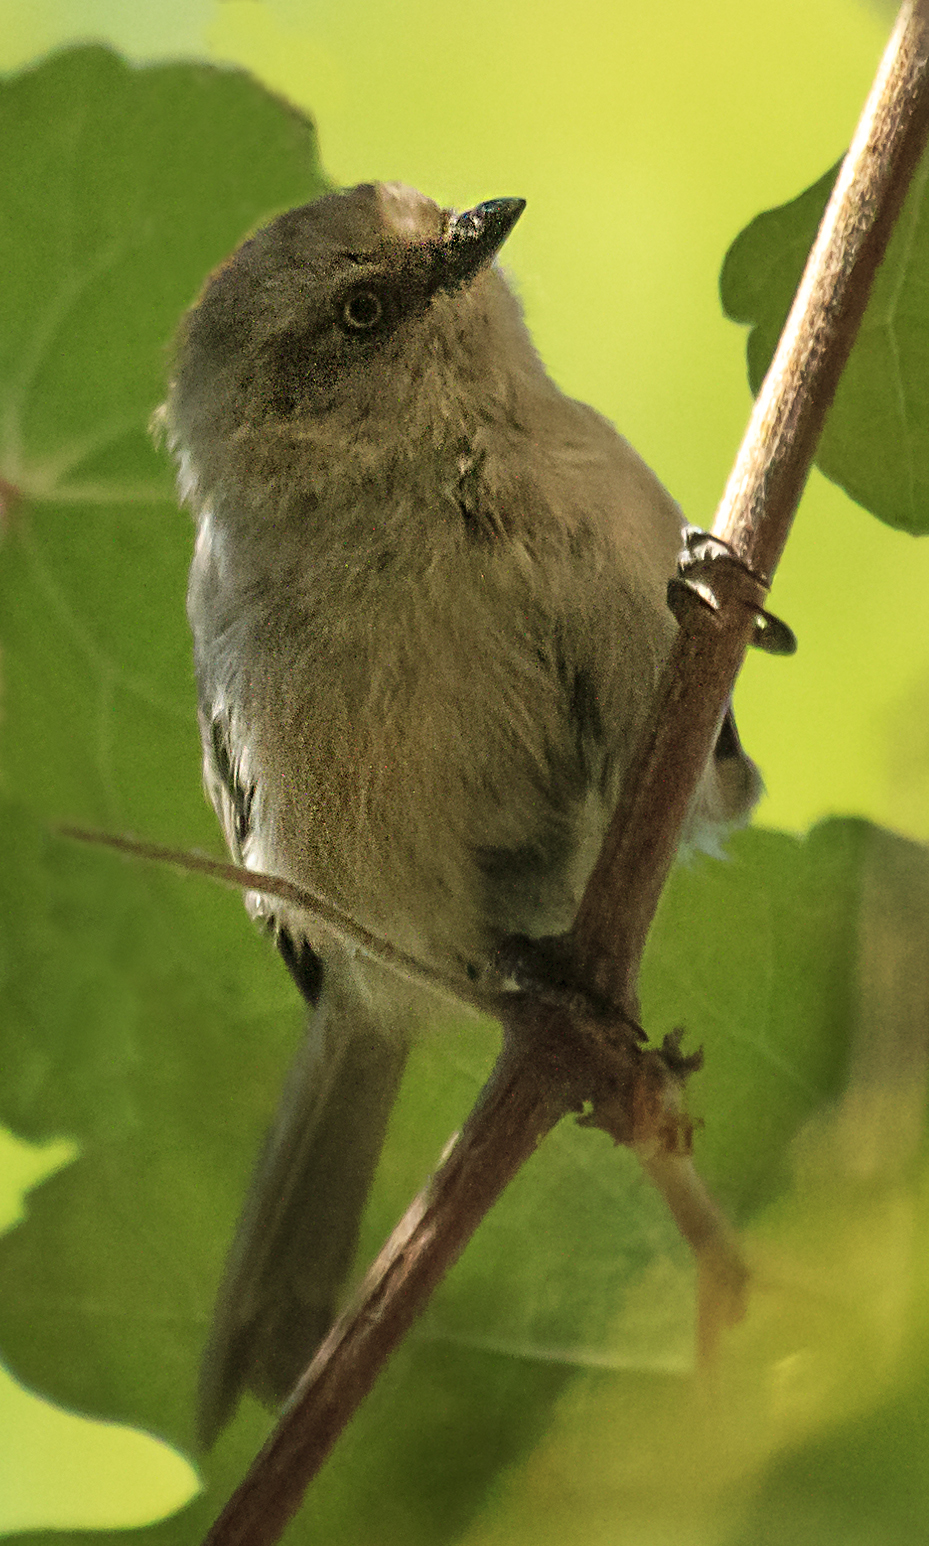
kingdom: Animalia
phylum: Chordata
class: Aves
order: Passeriformes
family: Aegithalidae
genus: Psaltriparus
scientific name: Psaltriparus minimus
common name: American bushtit
